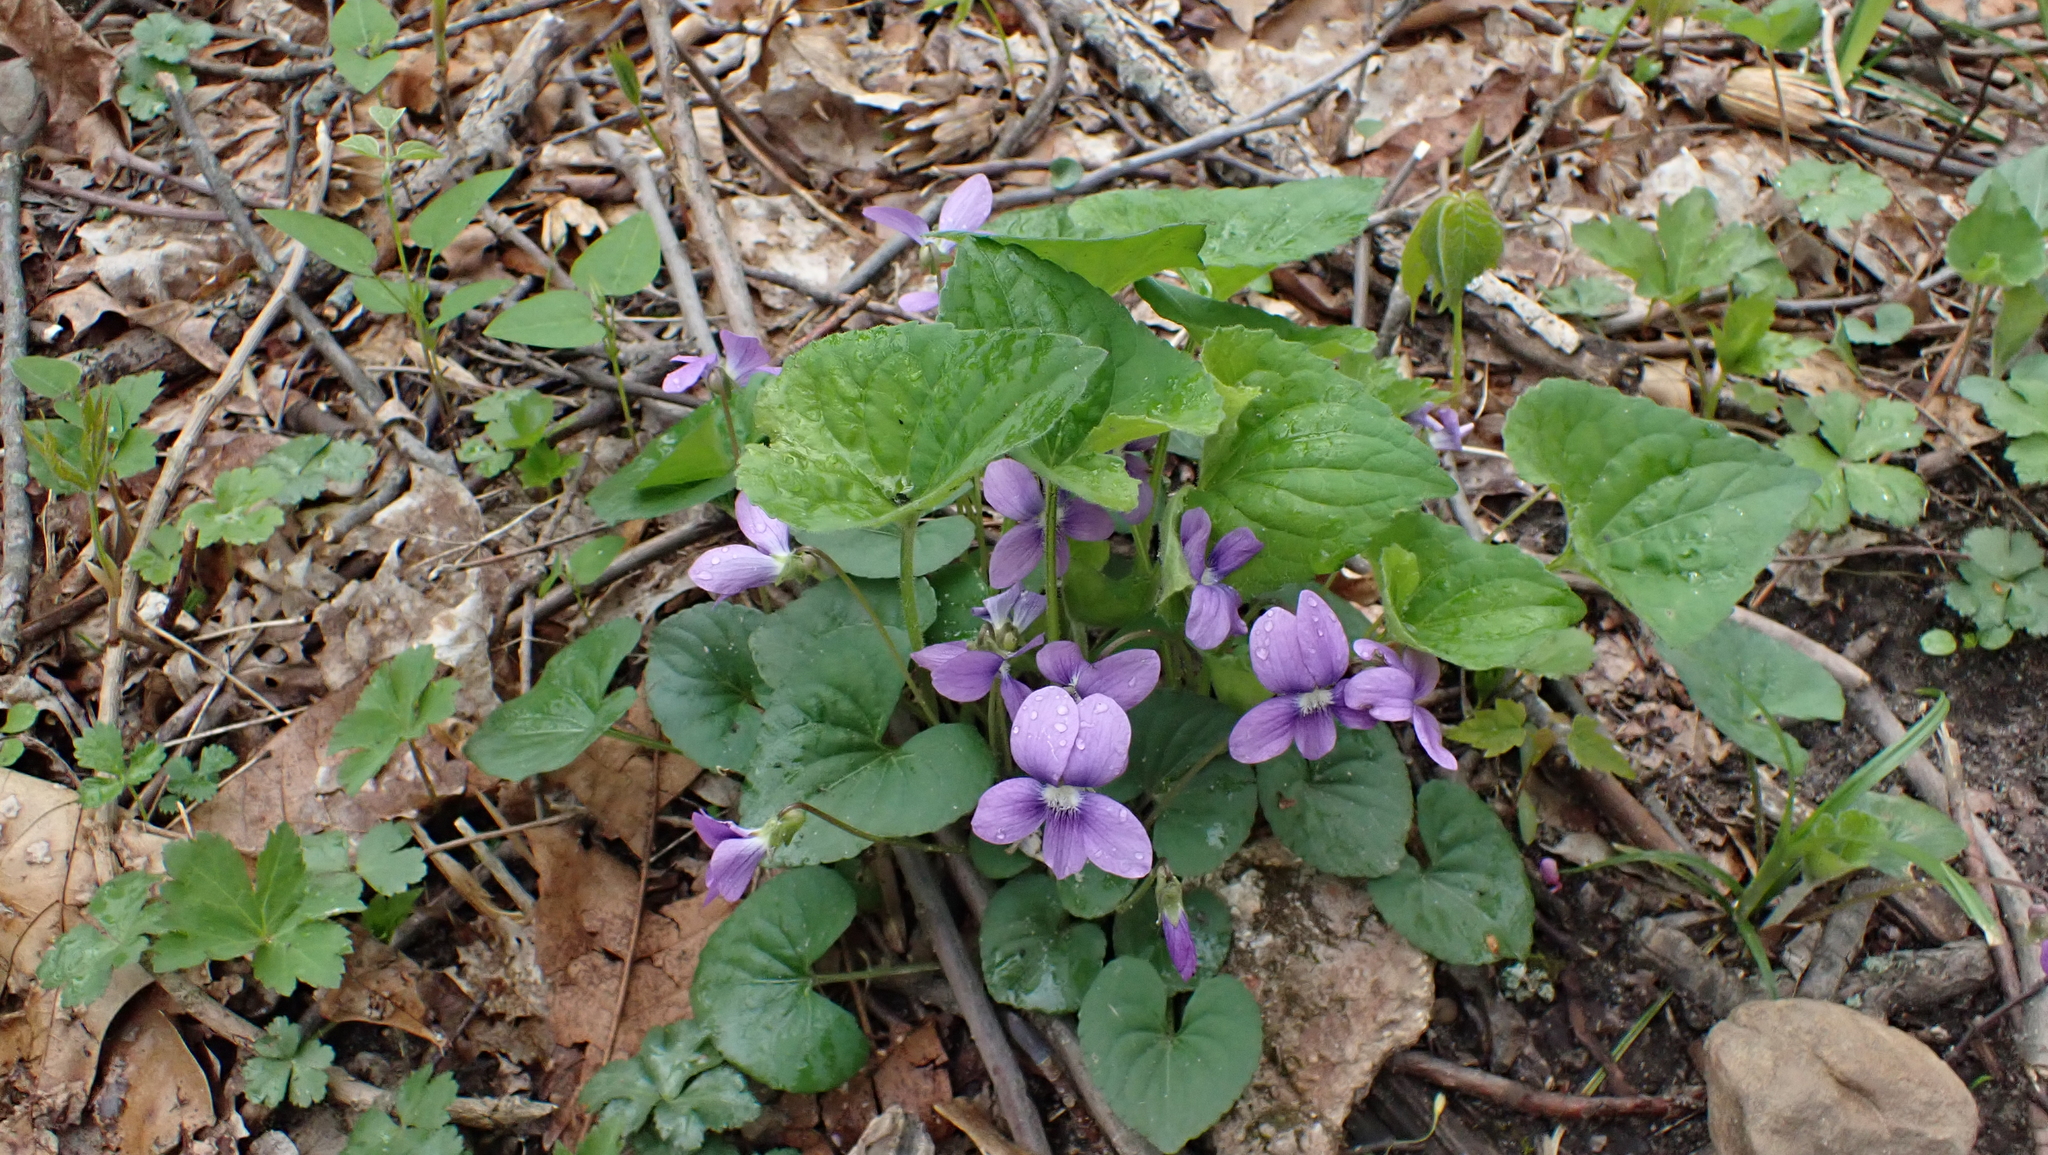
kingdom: Plantae
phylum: Tracheophyta
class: Magnoliopsida
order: Malpighiales
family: Violaceae
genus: Viola
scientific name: Viola sororia
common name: Dooryard violet
